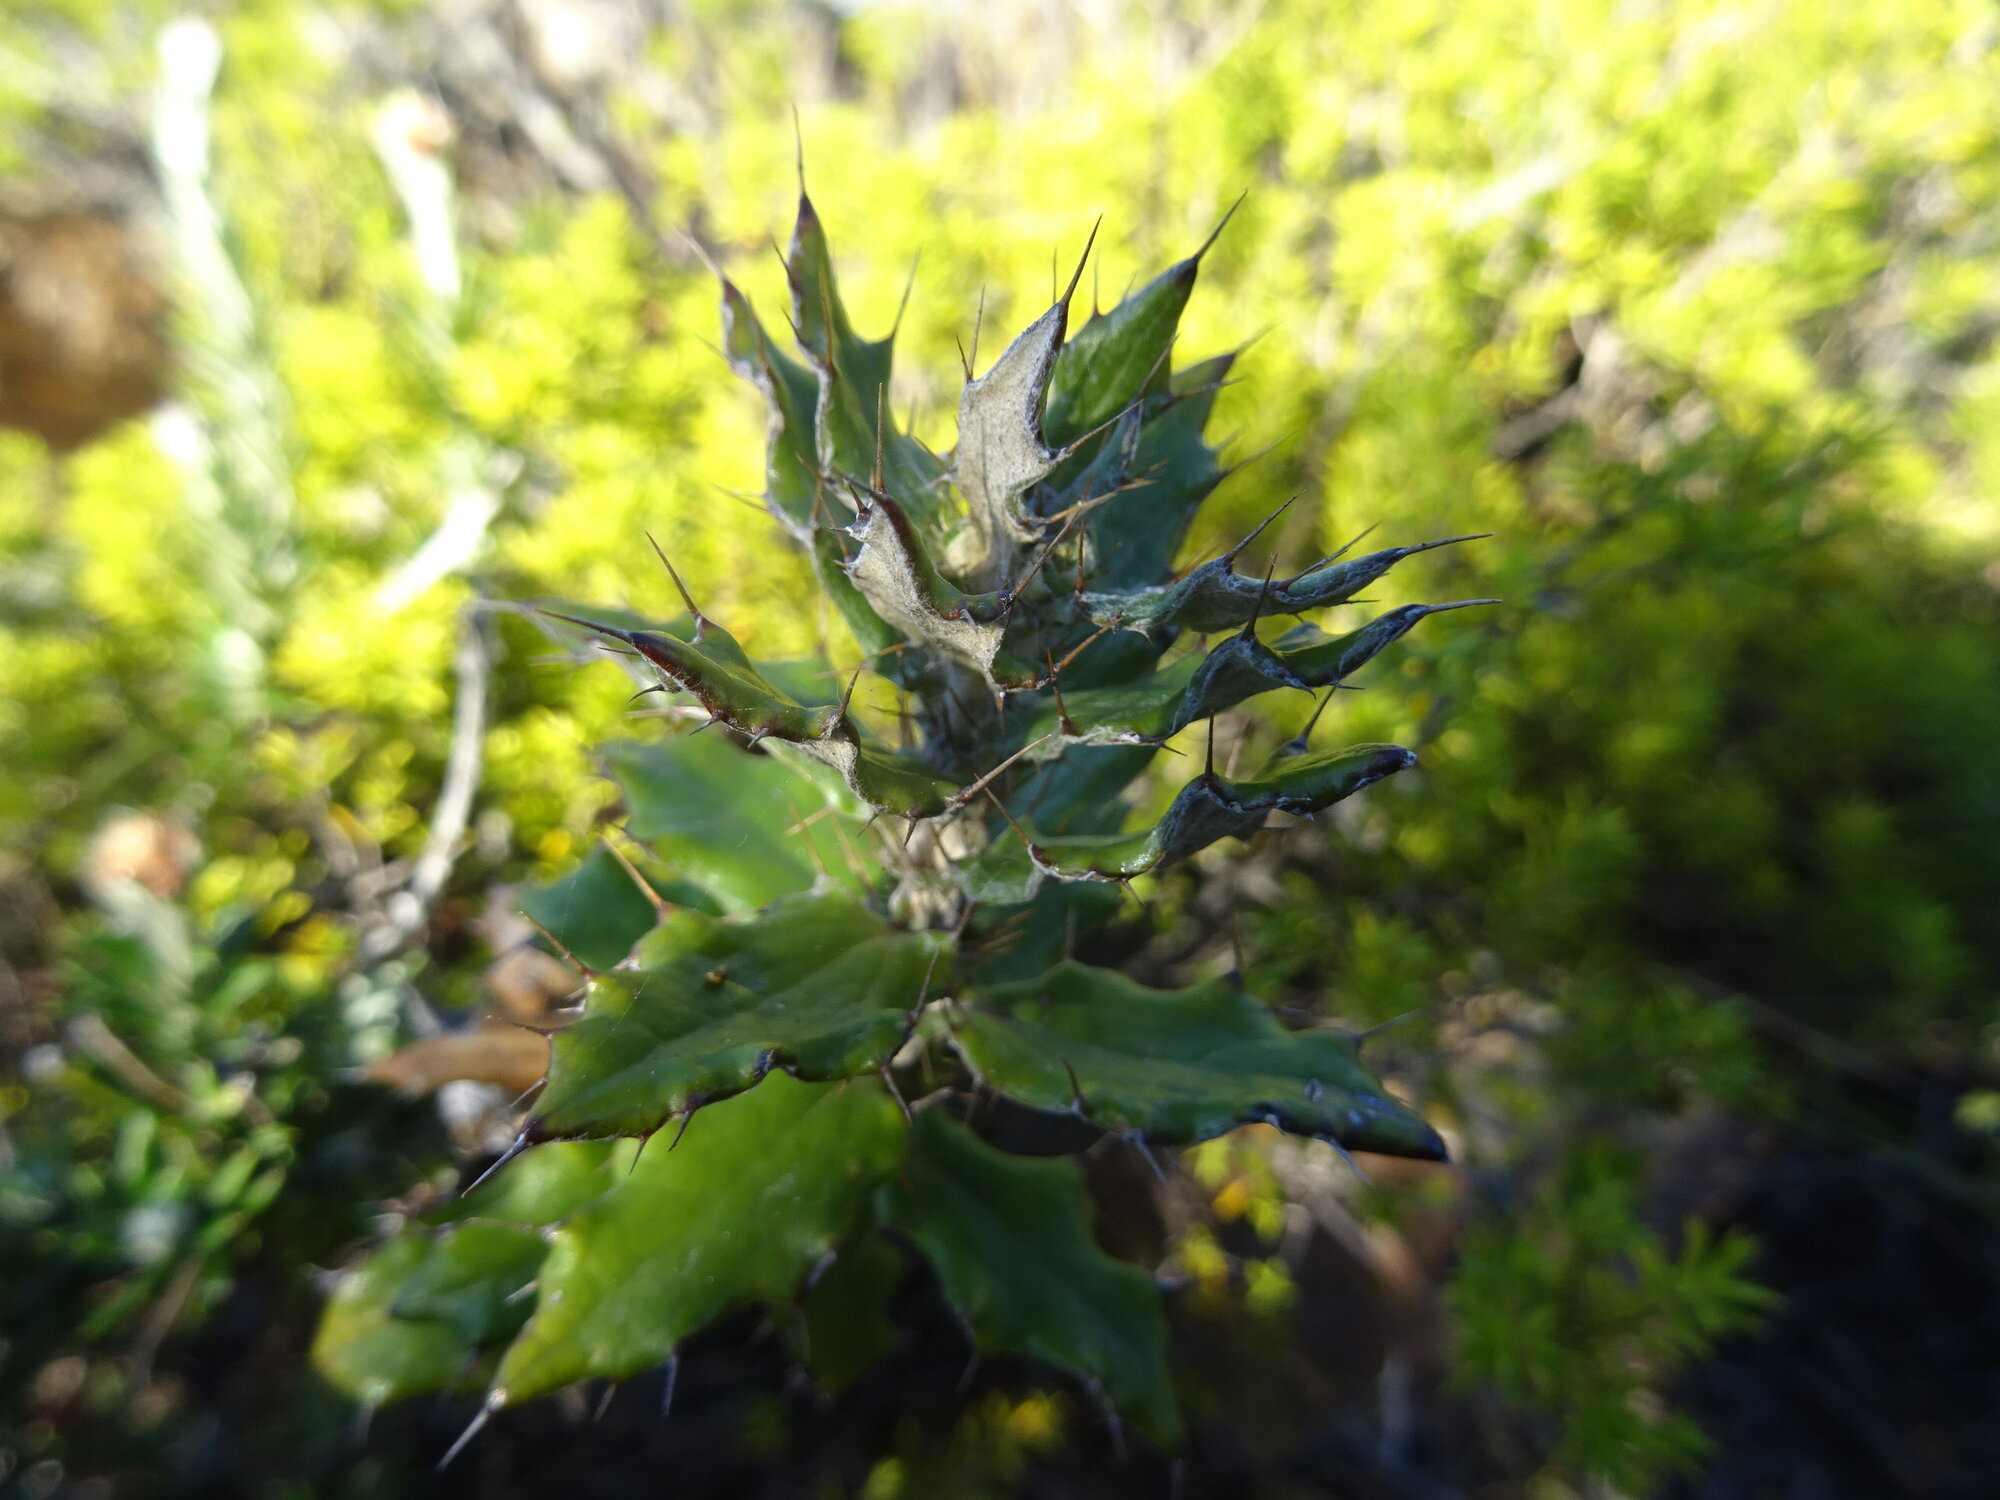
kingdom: Plantae
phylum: Tracheophyta
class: Magnoliopsida
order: Asterales
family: Asteraceae
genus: Berkheya
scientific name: Berkheya barbata
